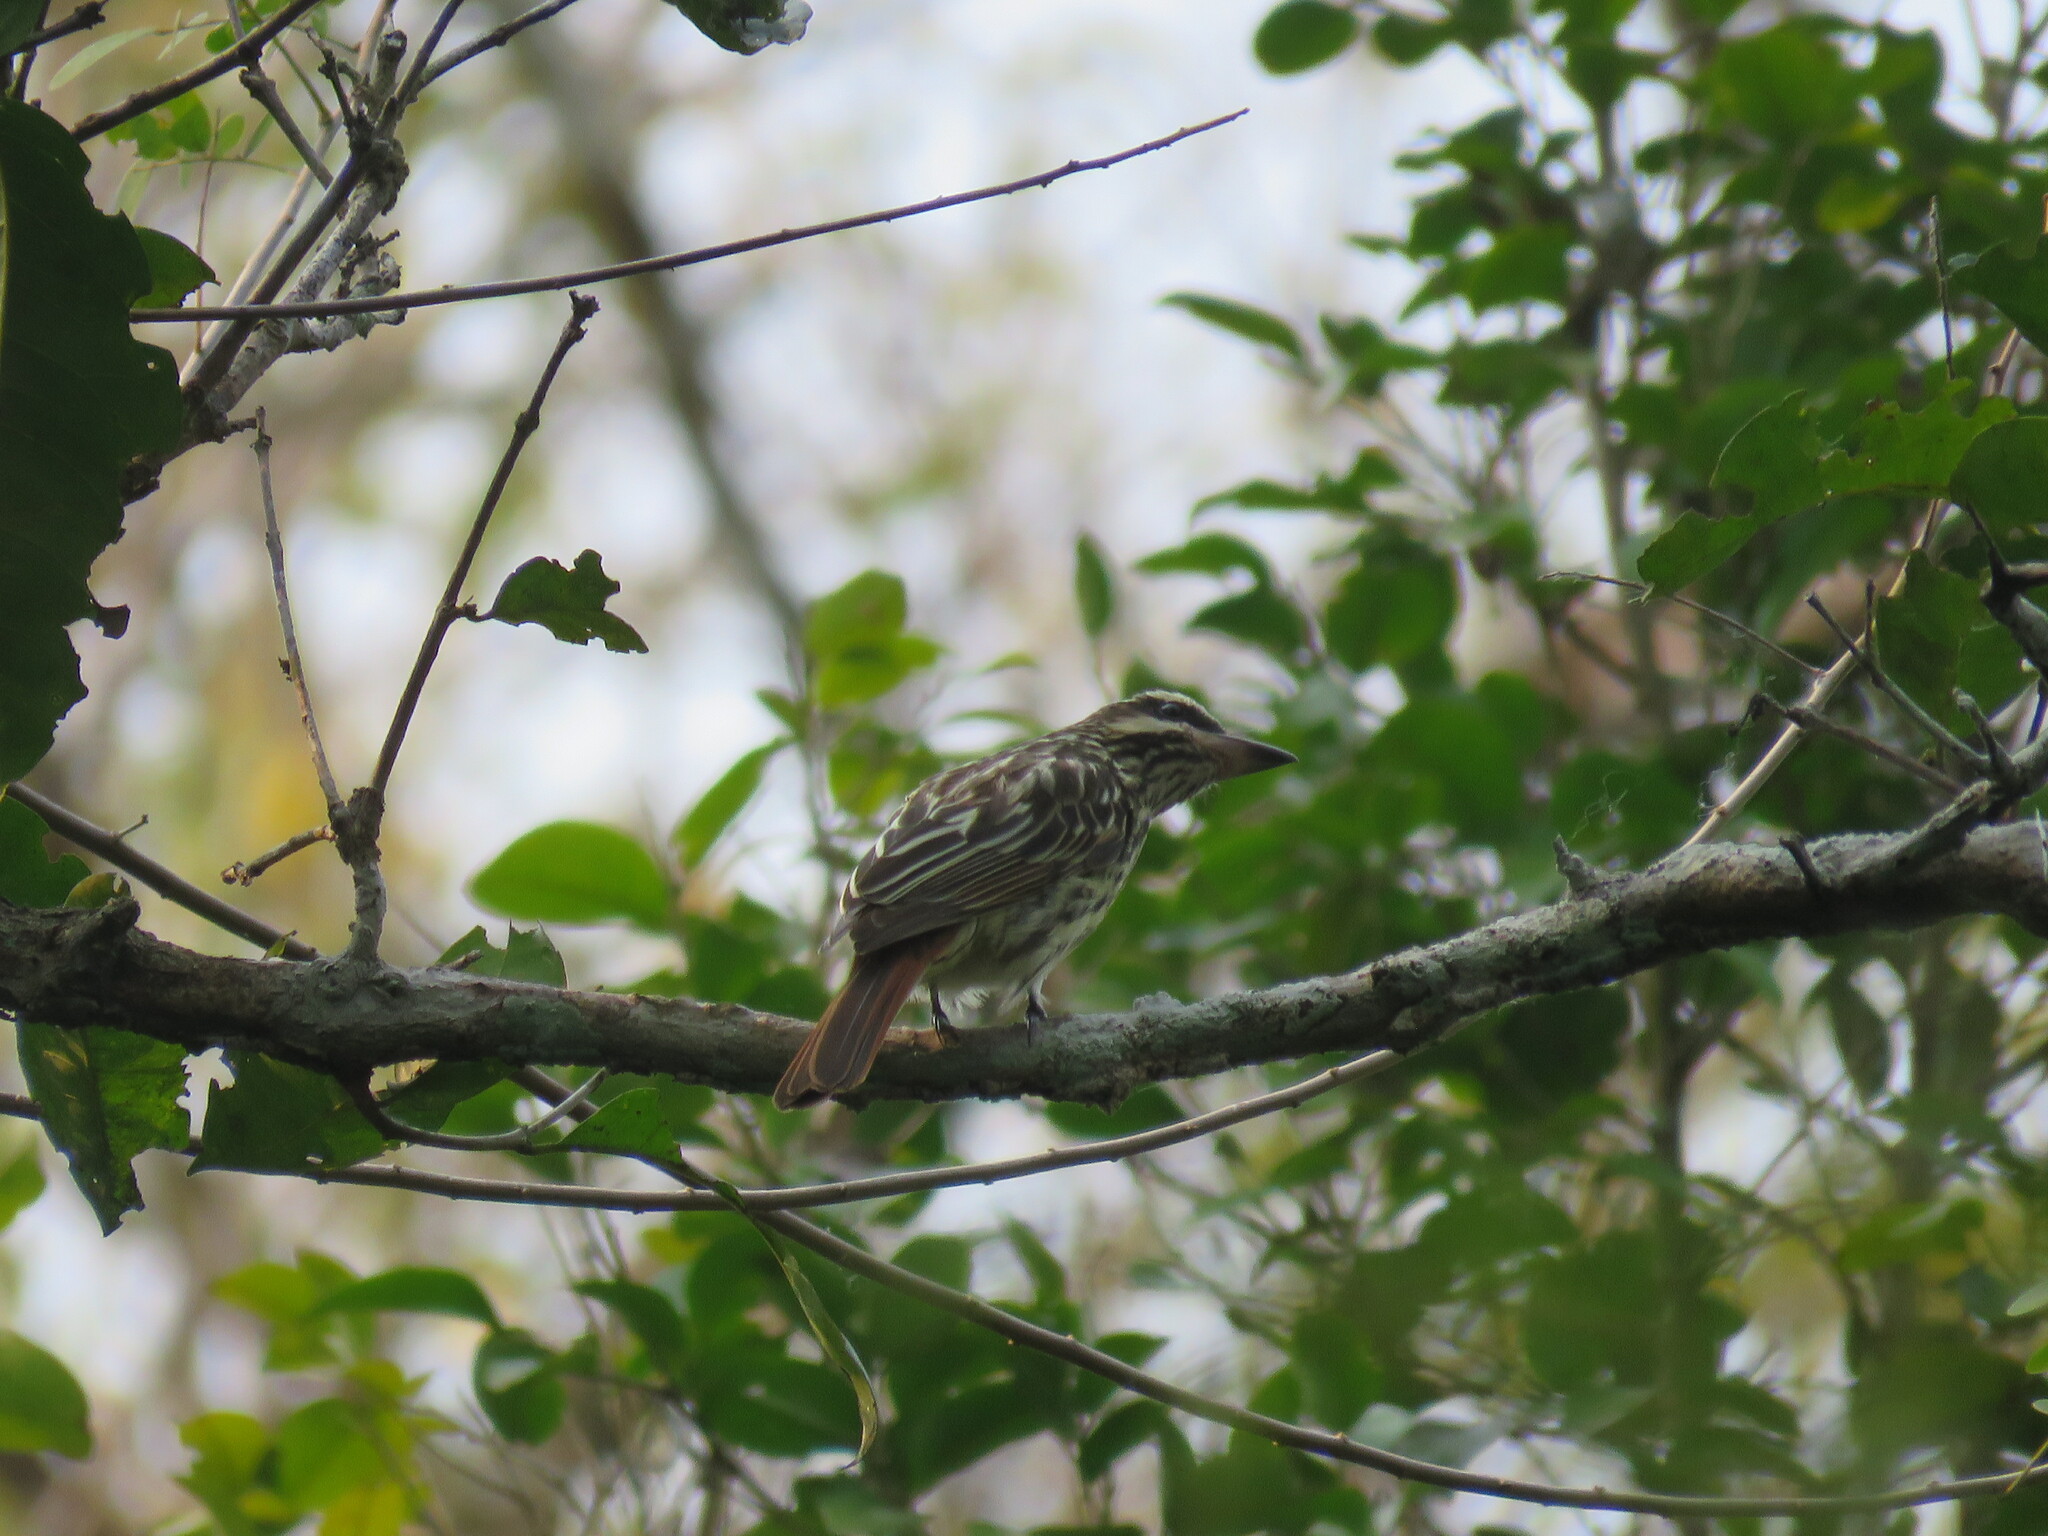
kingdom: Animalia
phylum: Chordata
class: Aves
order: Passeriformes
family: Tyrannidae
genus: Myiodynastes
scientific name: Myiodynastes maculatus
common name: Streaked flycatcher
